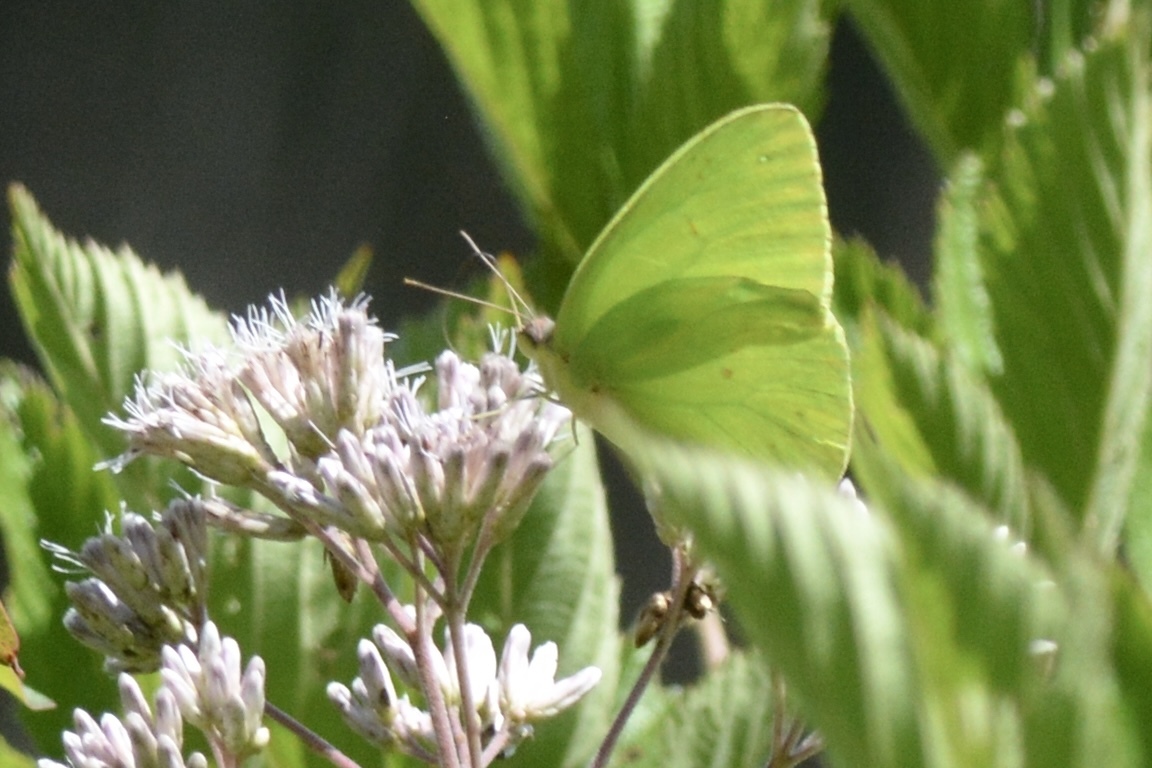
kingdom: Animalia
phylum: Arthropoda
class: Insecta
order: Lepidoptera
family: Pieridae
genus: Phoebis
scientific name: Phoebis sennae
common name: Cloudless sulphur
